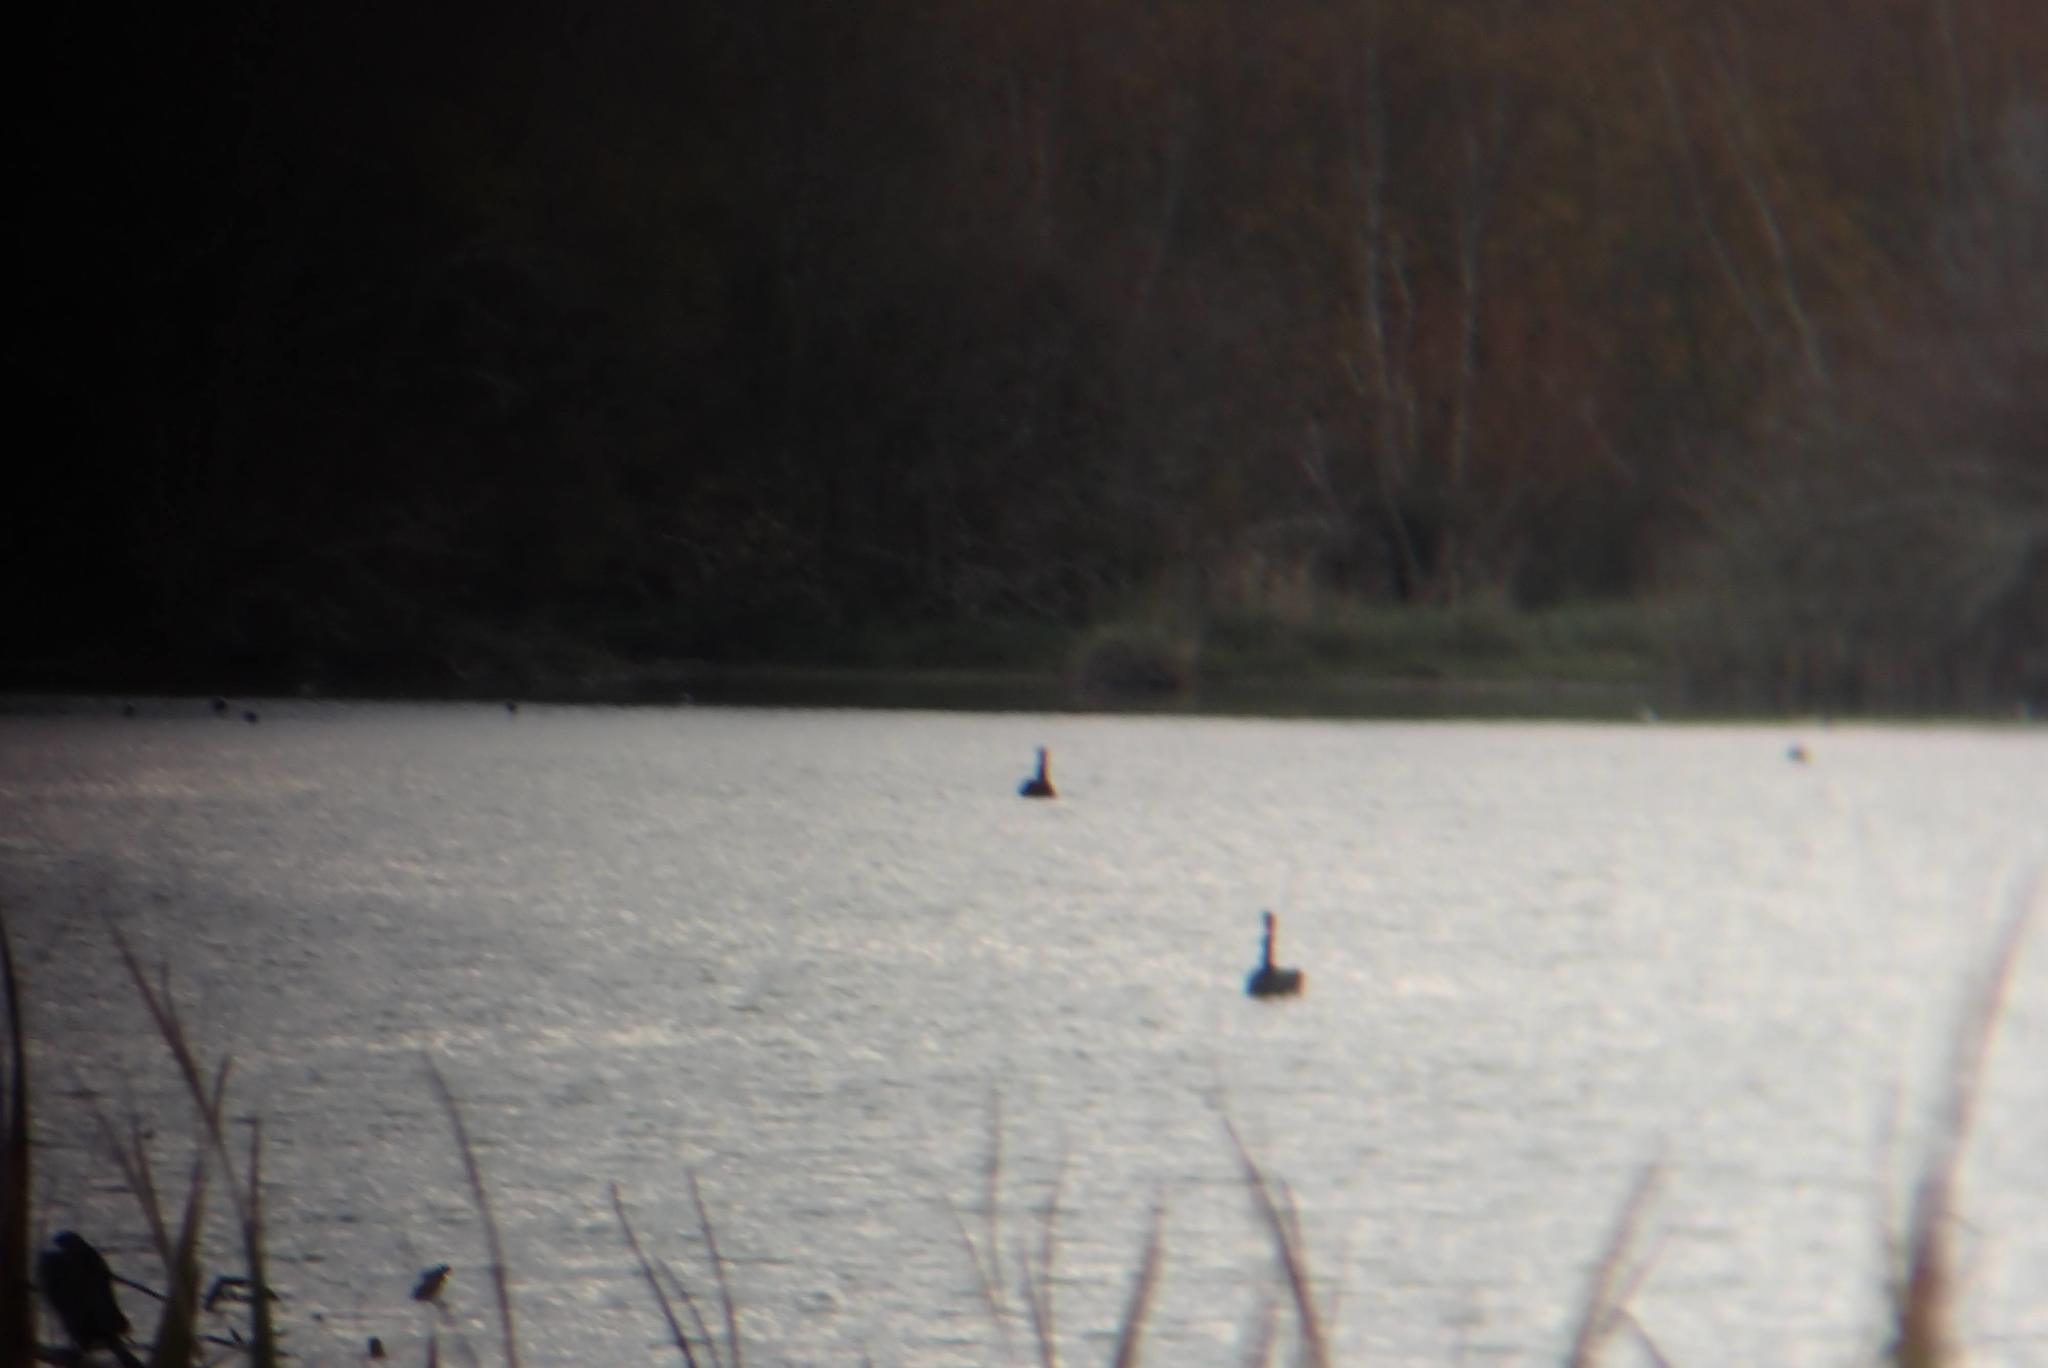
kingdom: Animalia
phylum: Chordata
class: Aves
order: Anseriformes
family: Anatidae
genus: Cygnus
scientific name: Cygnus atratus
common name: Black swan
